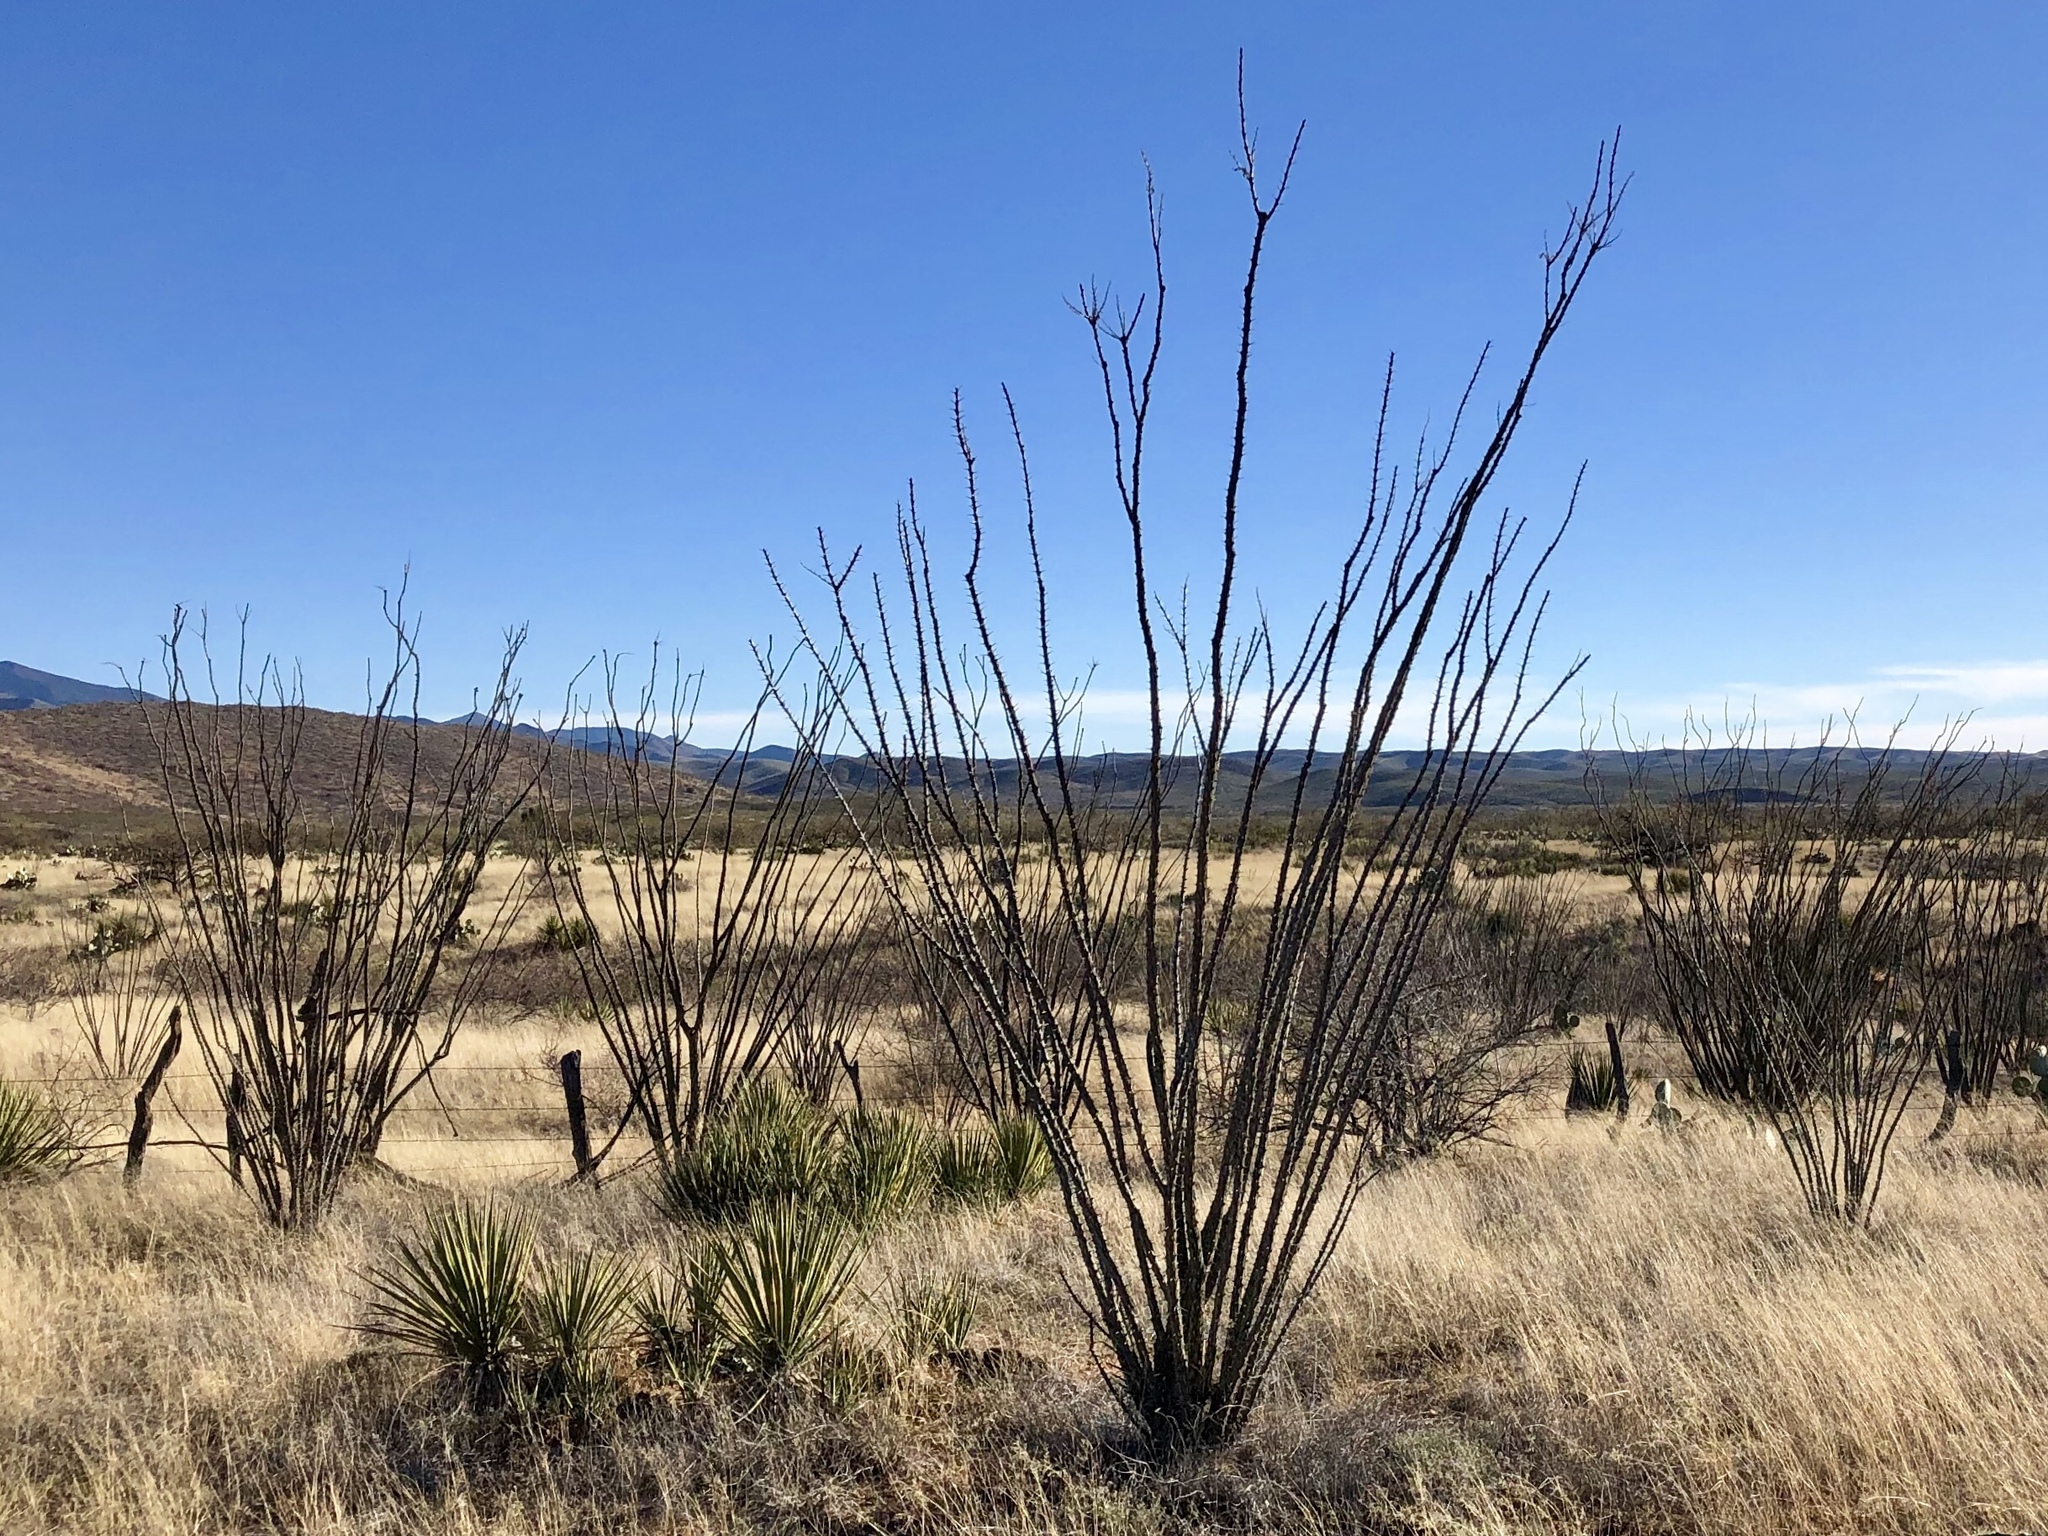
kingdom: Plantae
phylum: Tracheophyta
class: Magnoliopsida
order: Ericales
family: Fouquieriaceae
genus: Fouquieria
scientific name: Fouquieria splendens
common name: Vine-cactus
